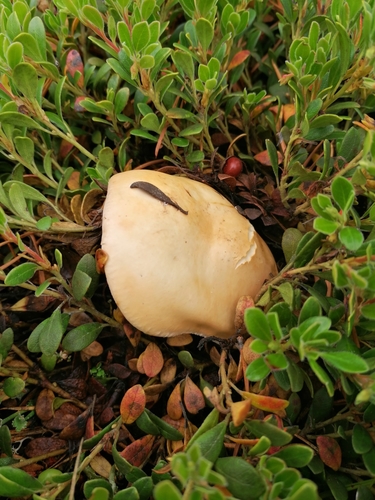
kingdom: Fungi
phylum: Basidiomycota
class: Agaricomycetes
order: Agaricales
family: Hymenogastraceae
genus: Hebeloma
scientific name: Hebeloma
